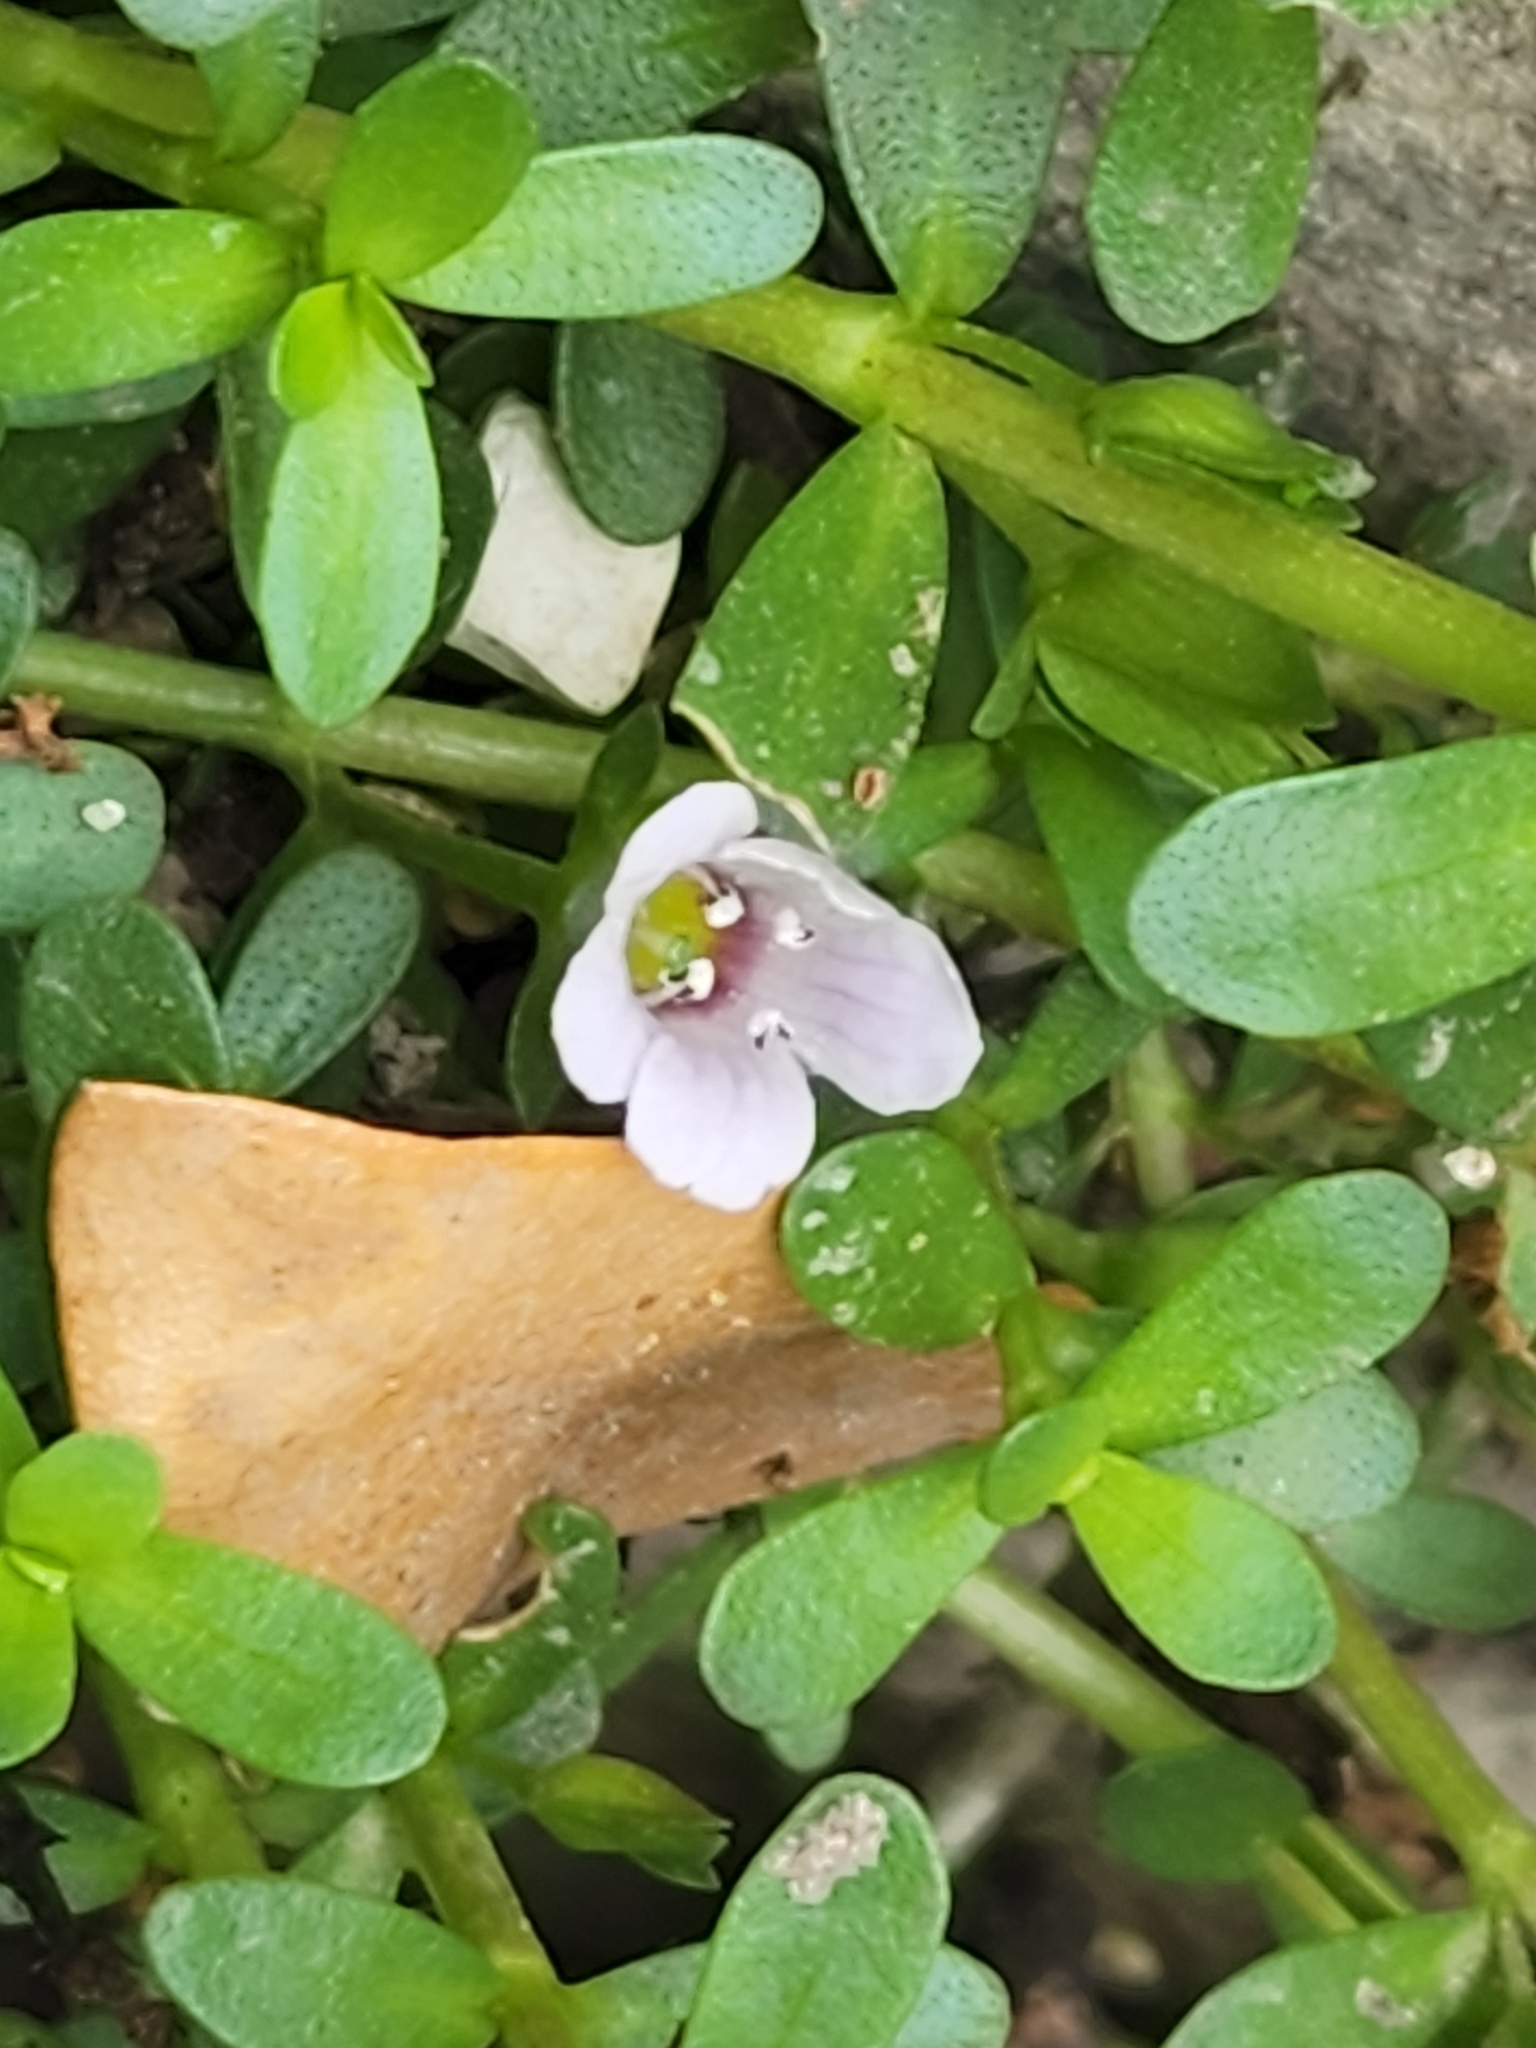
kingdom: Plantae
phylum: Tracheophyta
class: Magnoliopsida
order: Lamiales
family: Plantaginaceae
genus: Bacopa
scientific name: Bacopa monnieri
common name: Indian-pennywort
